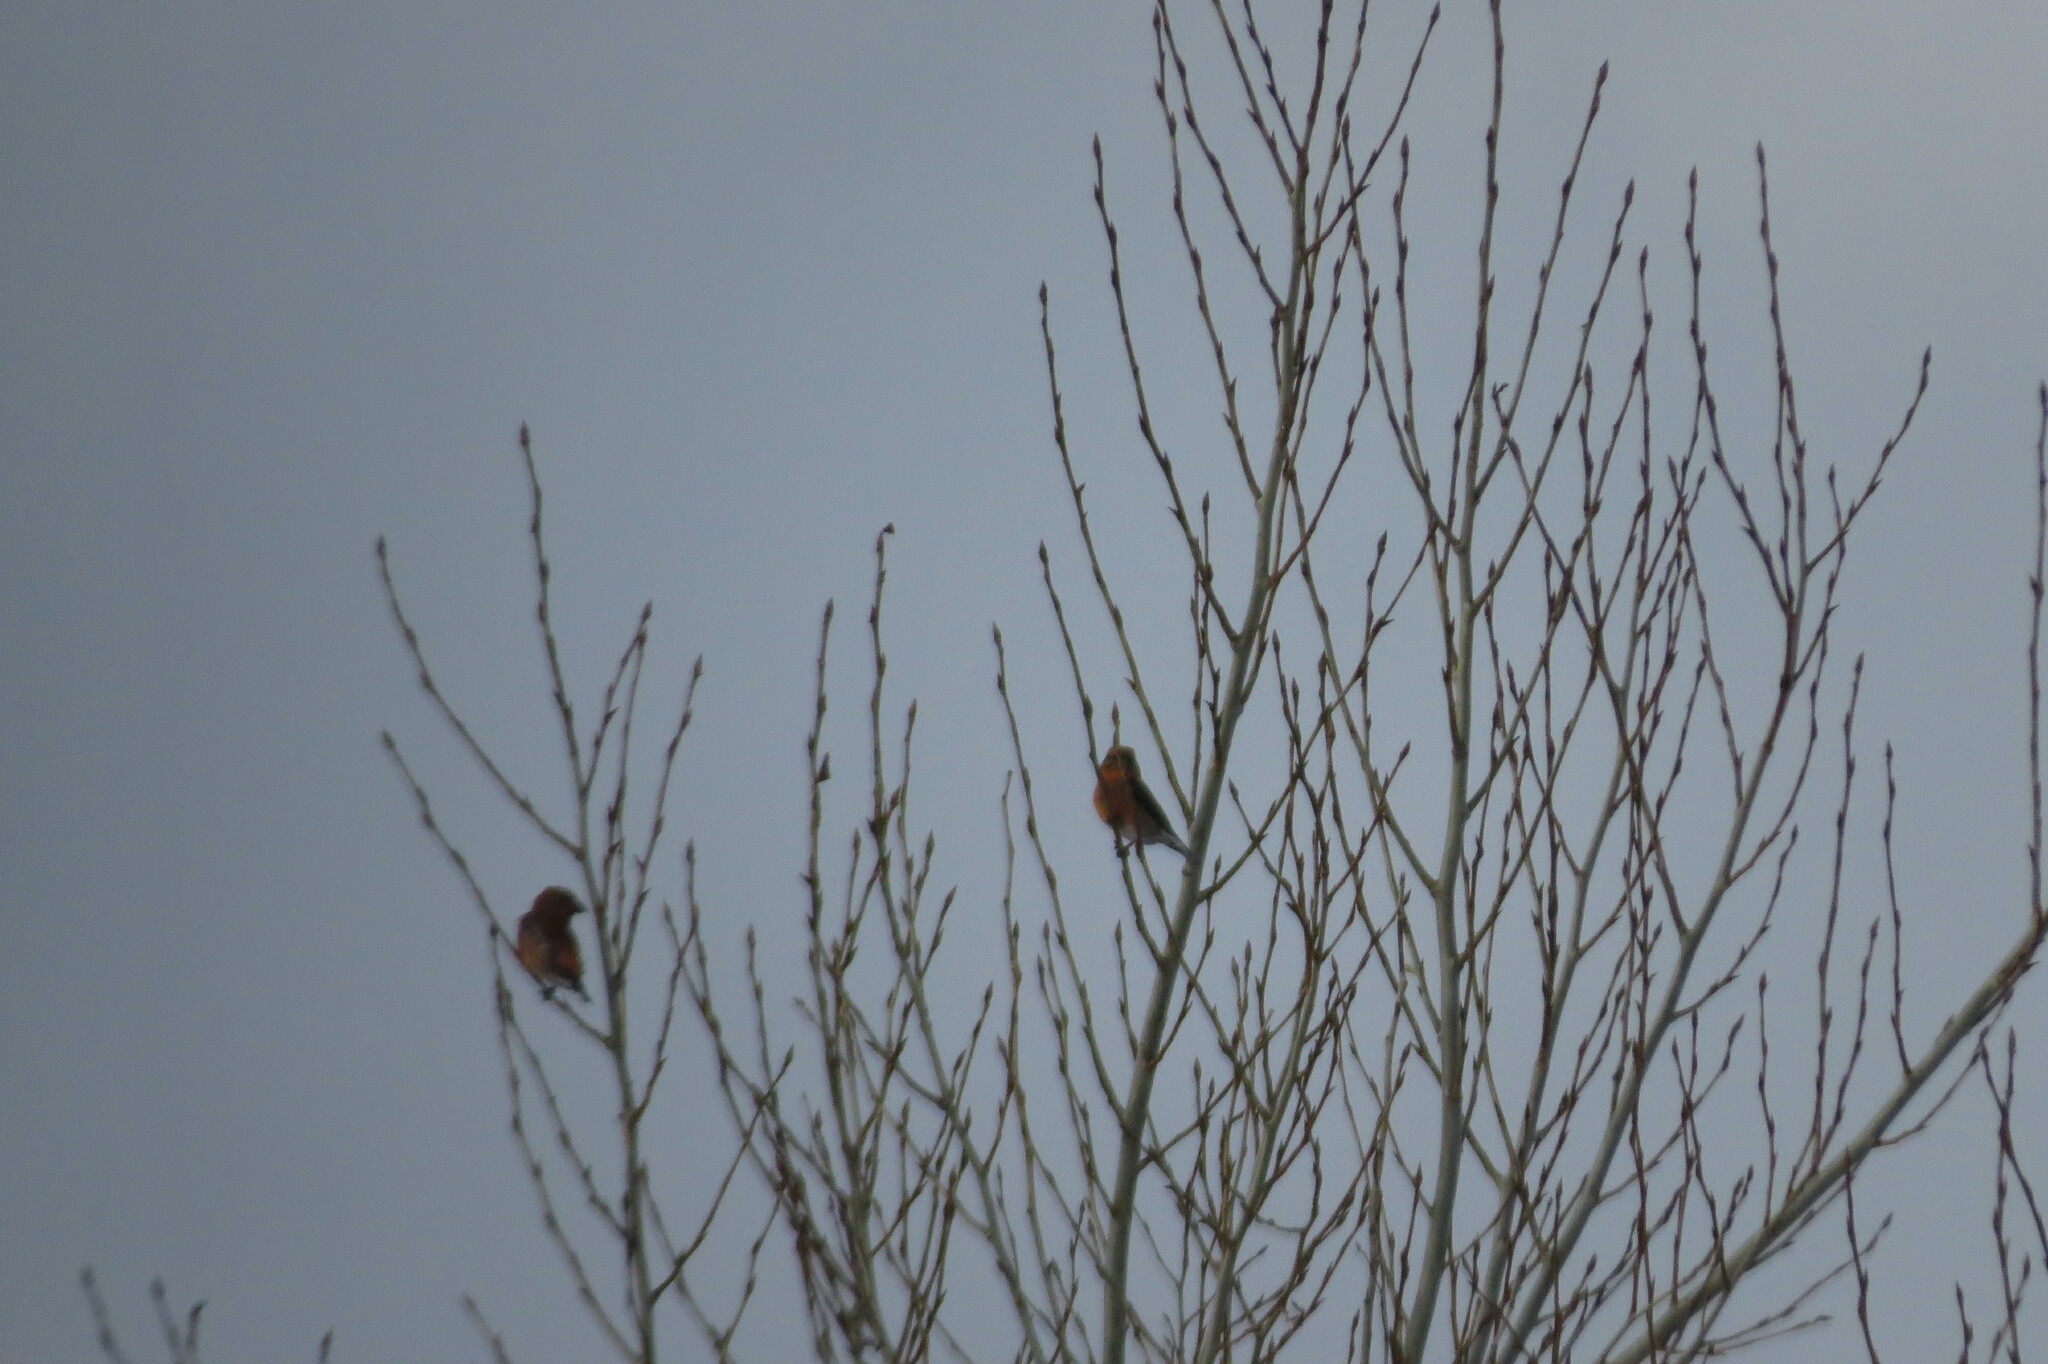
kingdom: Animalia
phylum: Chordata
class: Aves
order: Passeriformes
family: Fringillidae
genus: Loxia
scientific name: Loxia curvirostra
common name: Red crossbill
